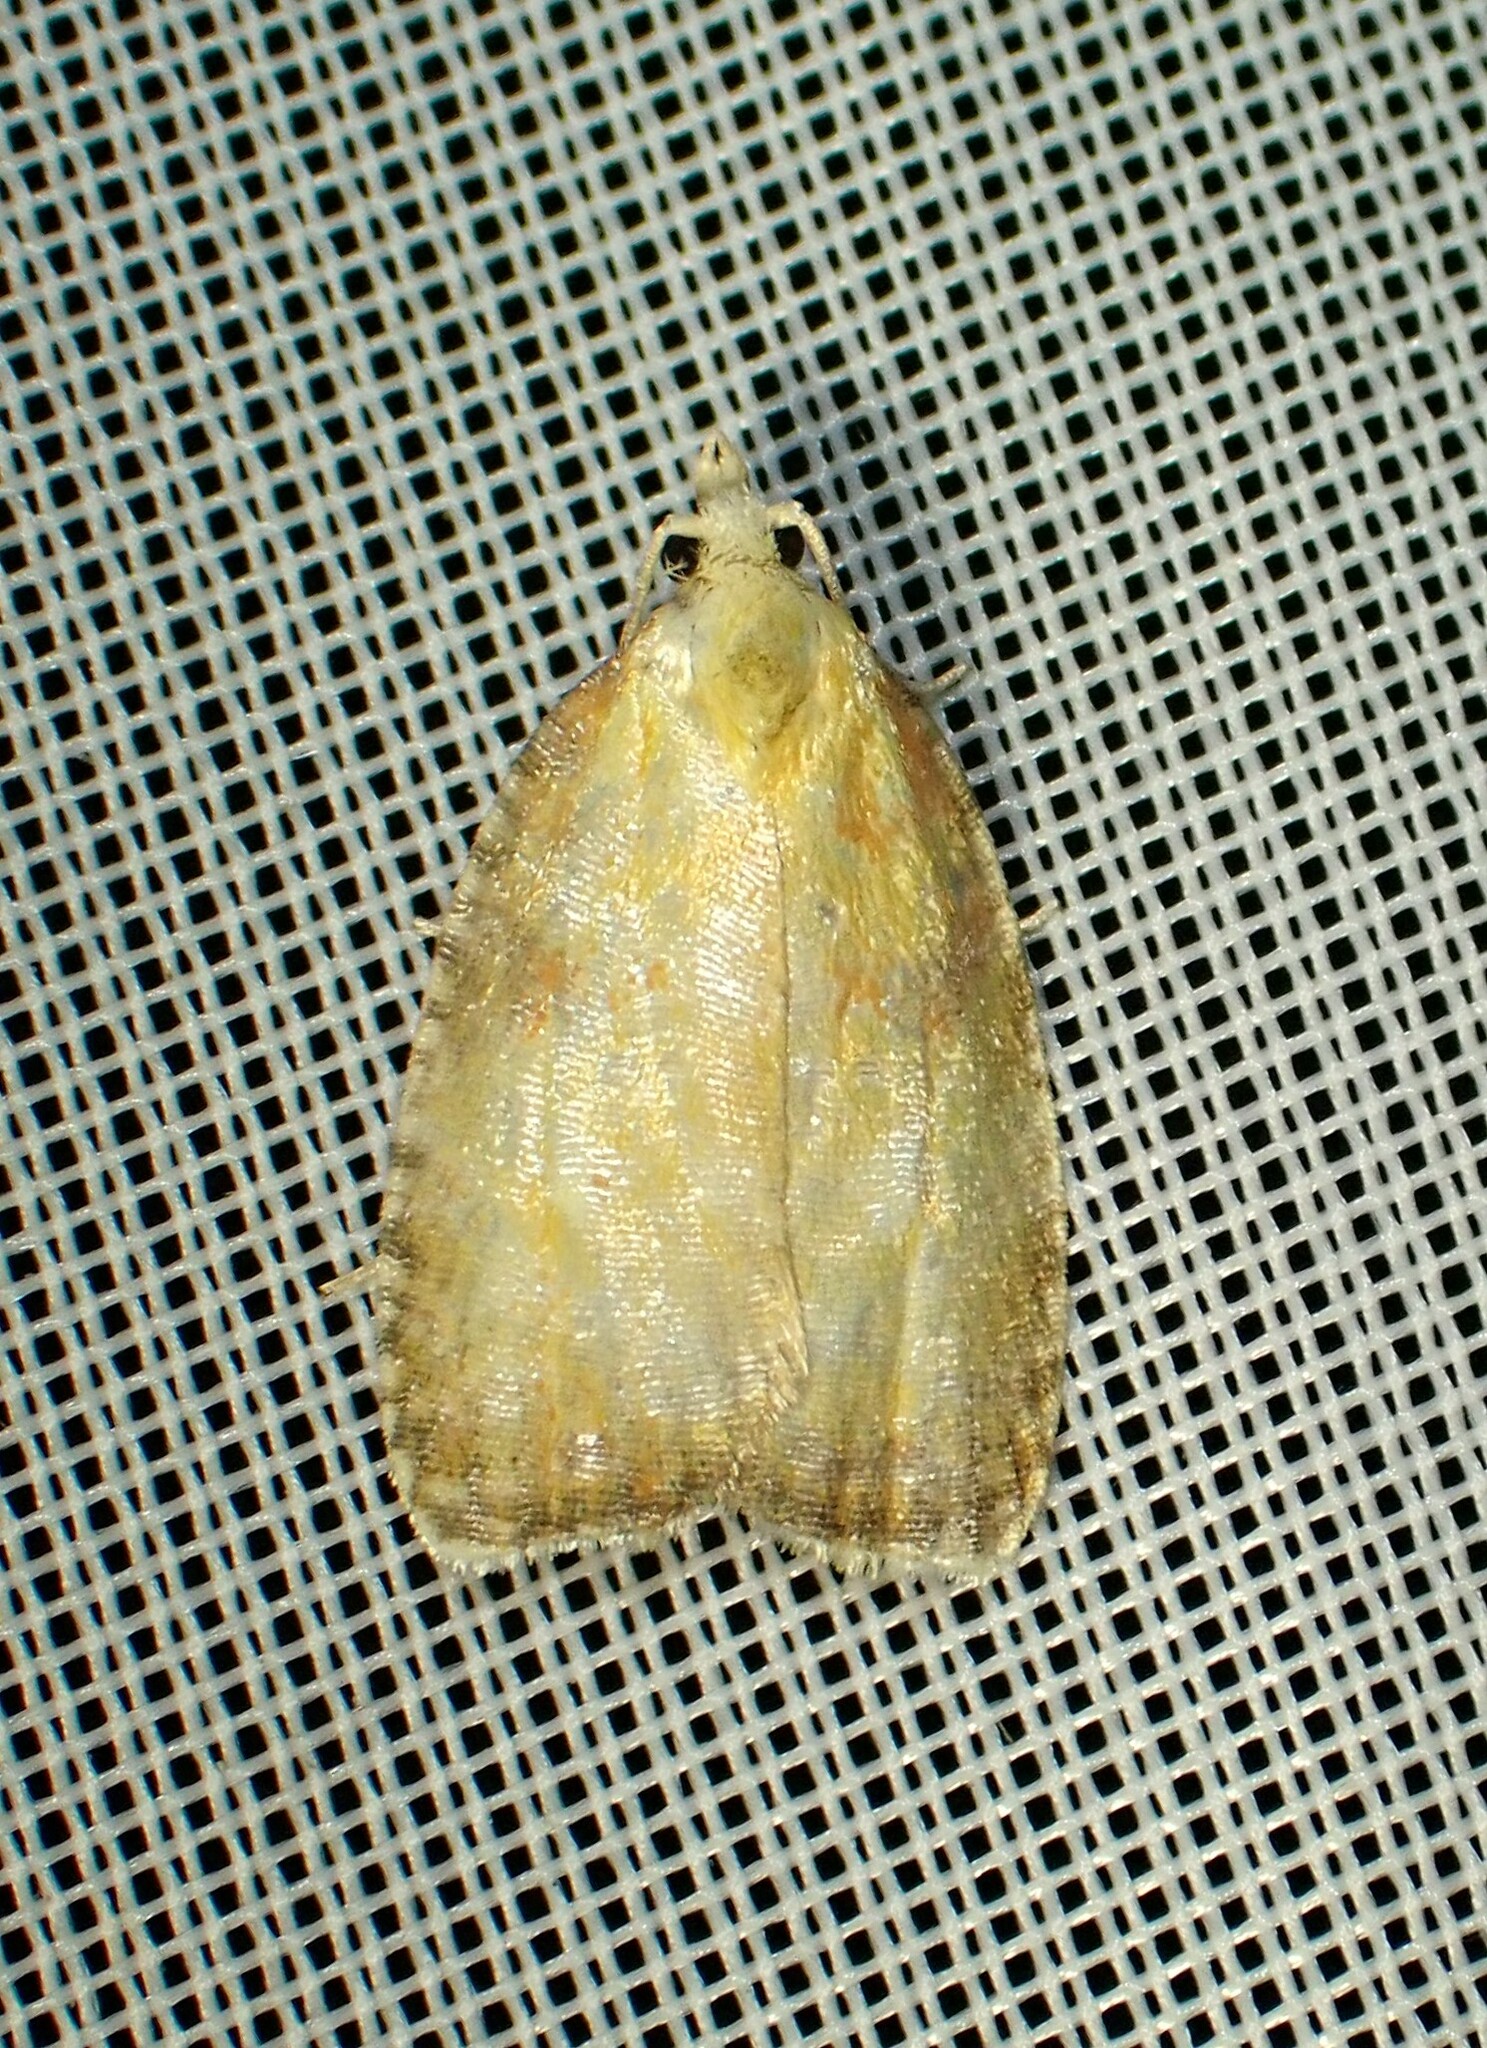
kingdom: Animalia
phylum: Arthropoda
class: Insecta
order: Lepidoptera
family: Tortricidae
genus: Acleris
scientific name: Acleris curvalana
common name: Blueberry leaftier moth
